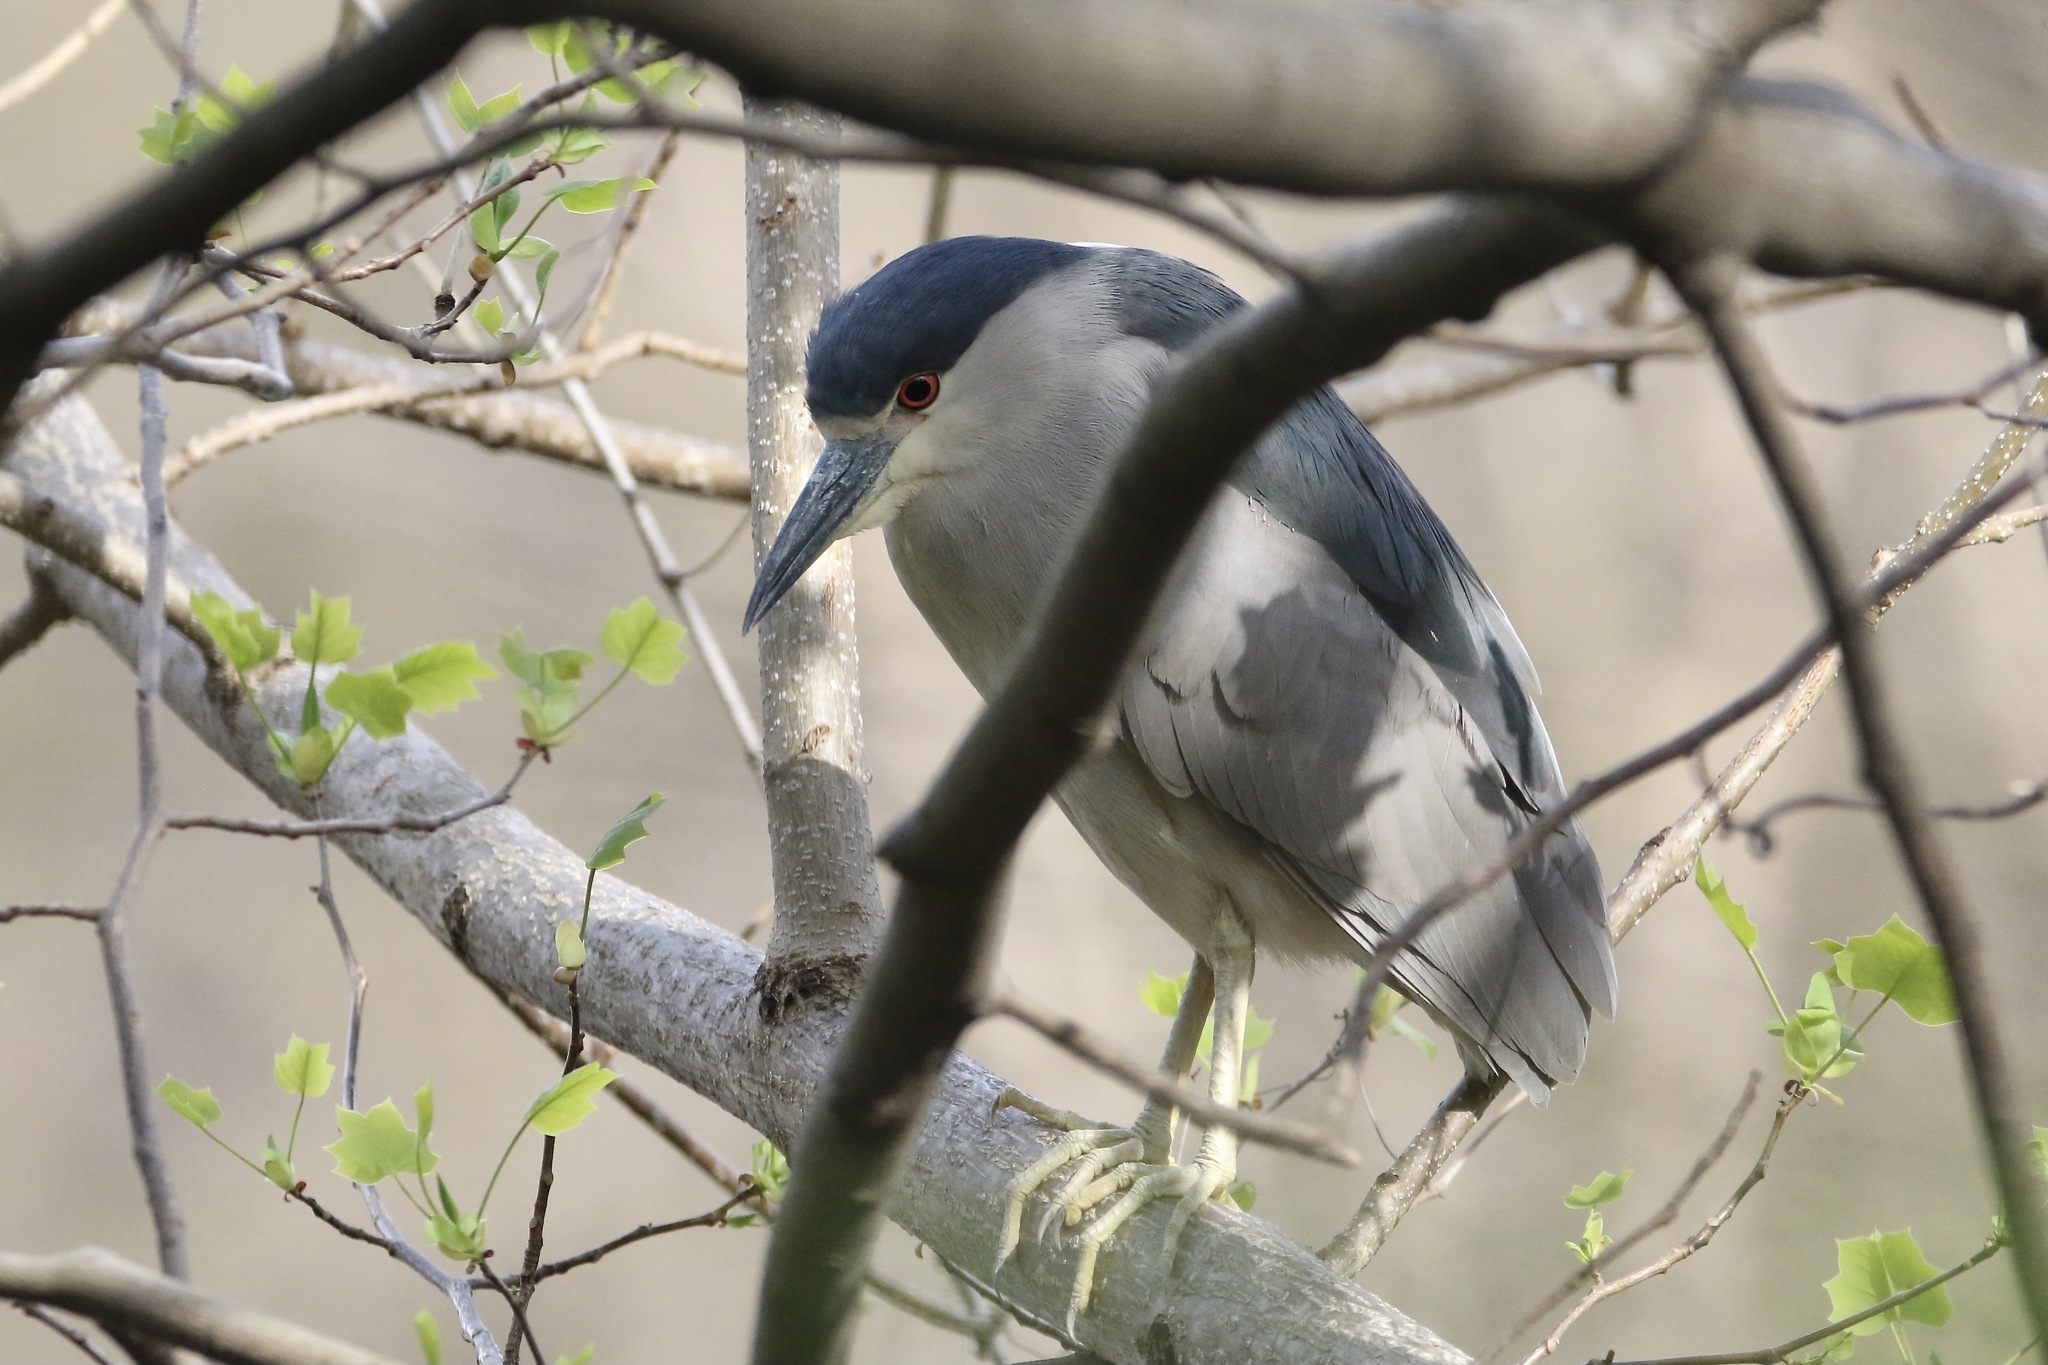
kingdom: Animalia
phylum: Chordata
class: Aves
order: Pelecaniformes
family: Ardeidae
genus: Nycticorax
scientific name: Nycticorax nycticorax
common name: Black-crowned night heron
